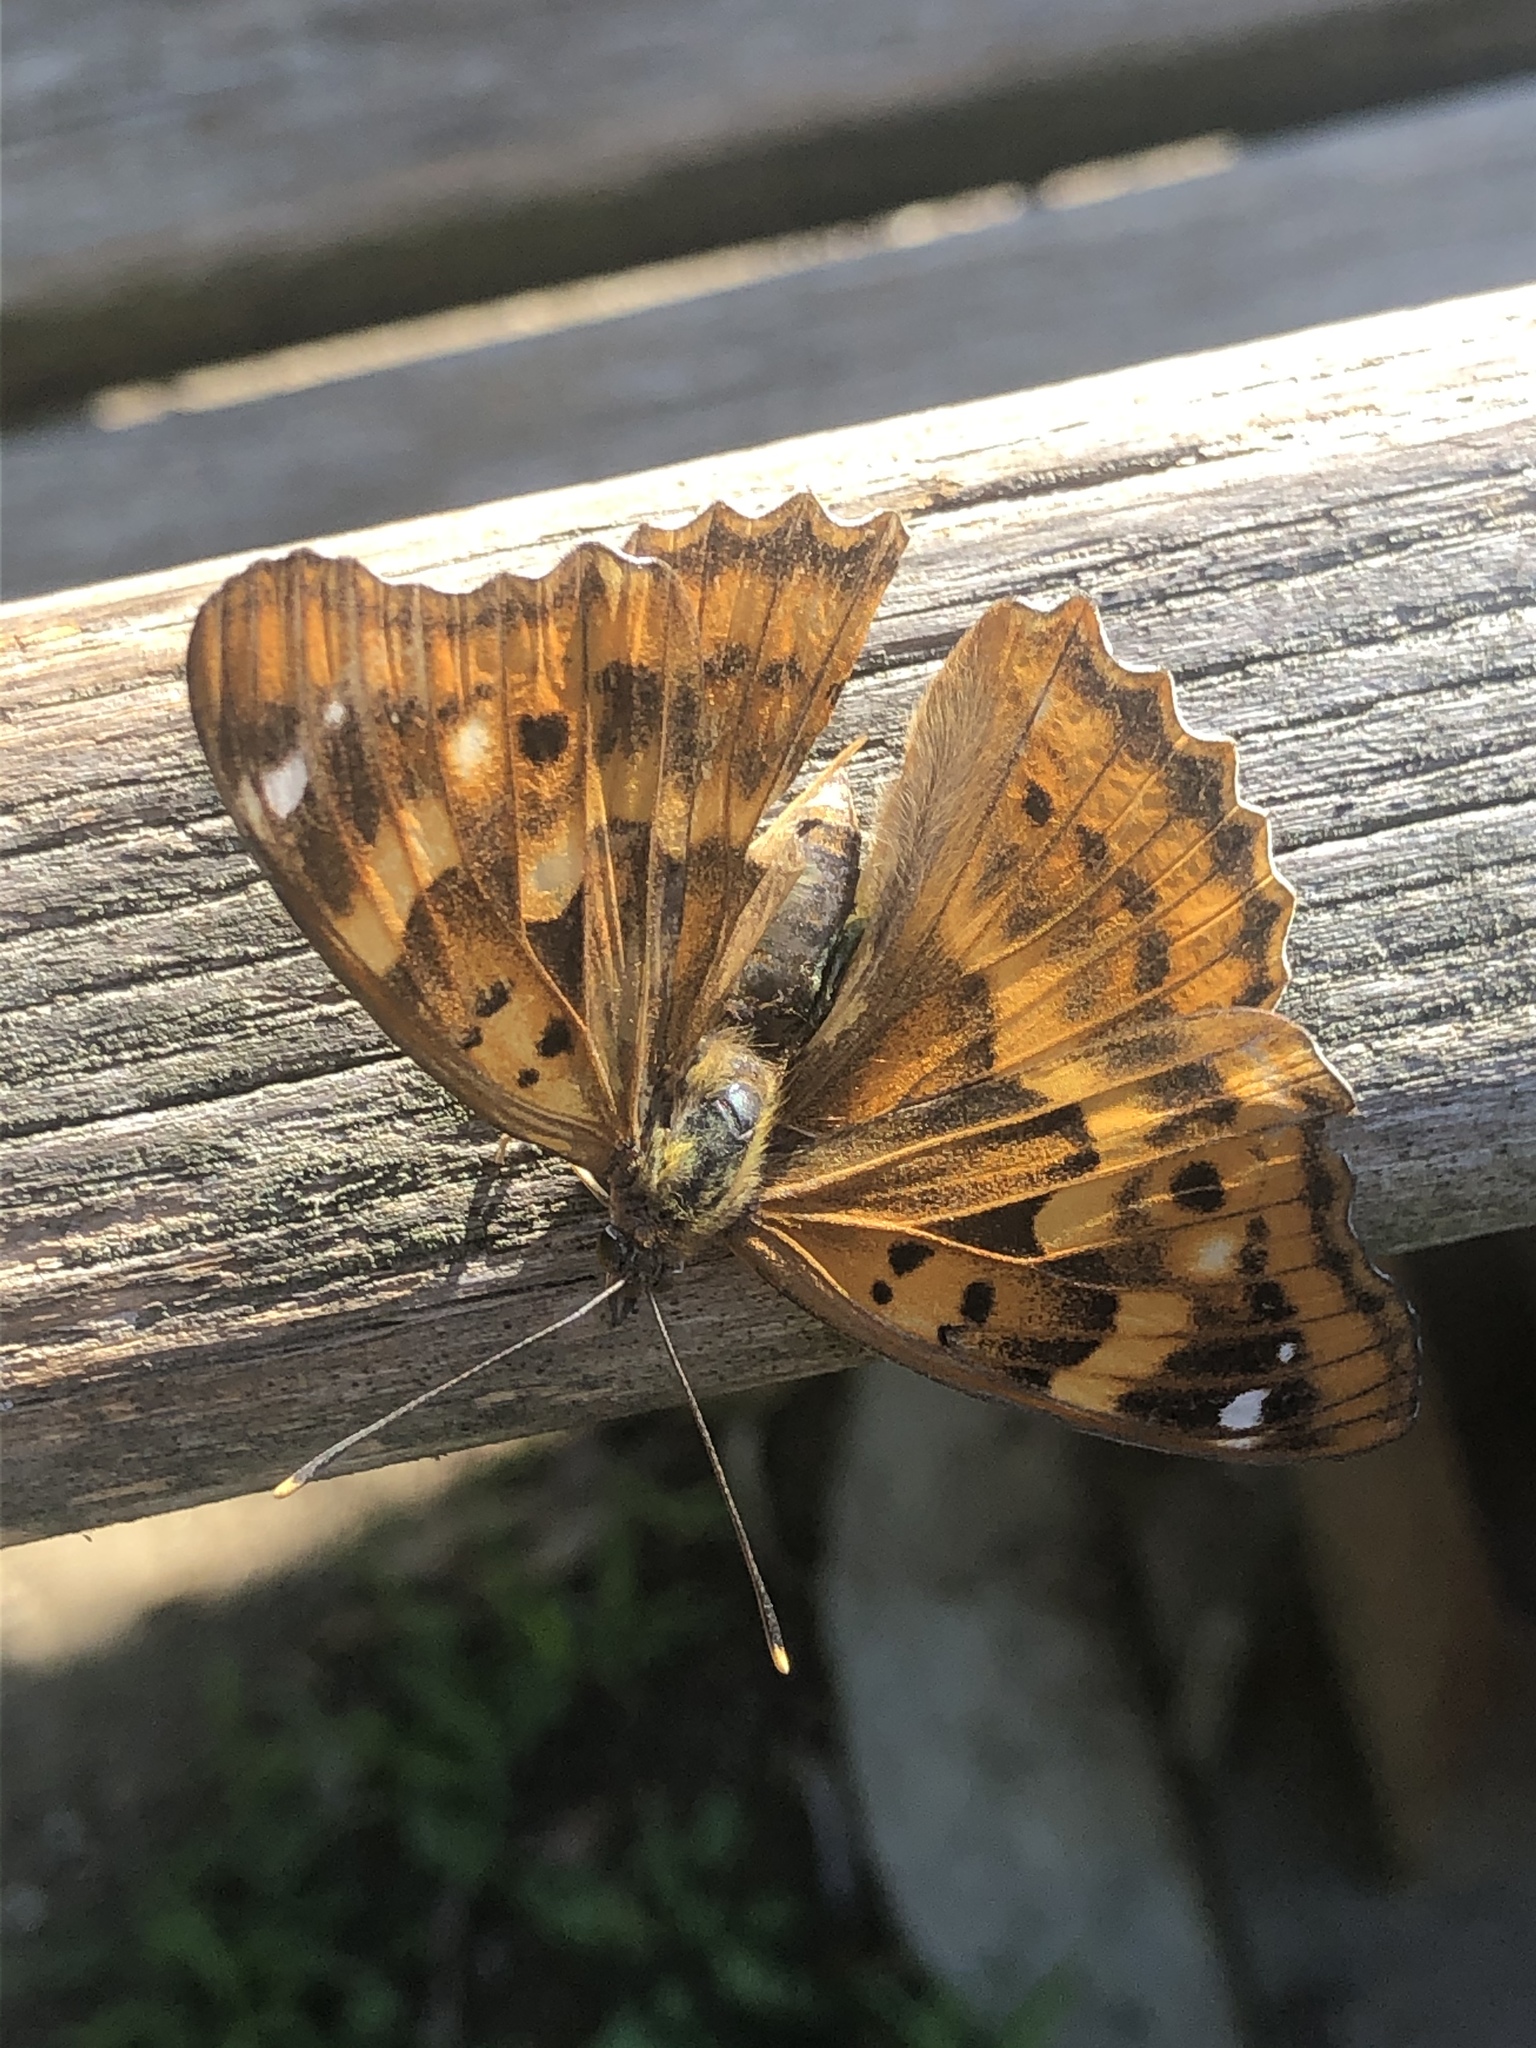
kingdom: Animalia
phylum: Arthropoda
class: Insecta
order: Lepidoptera
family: Nymphalidae
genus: Apatura
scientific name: Apatura ilia
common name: Lesser purple emperor
